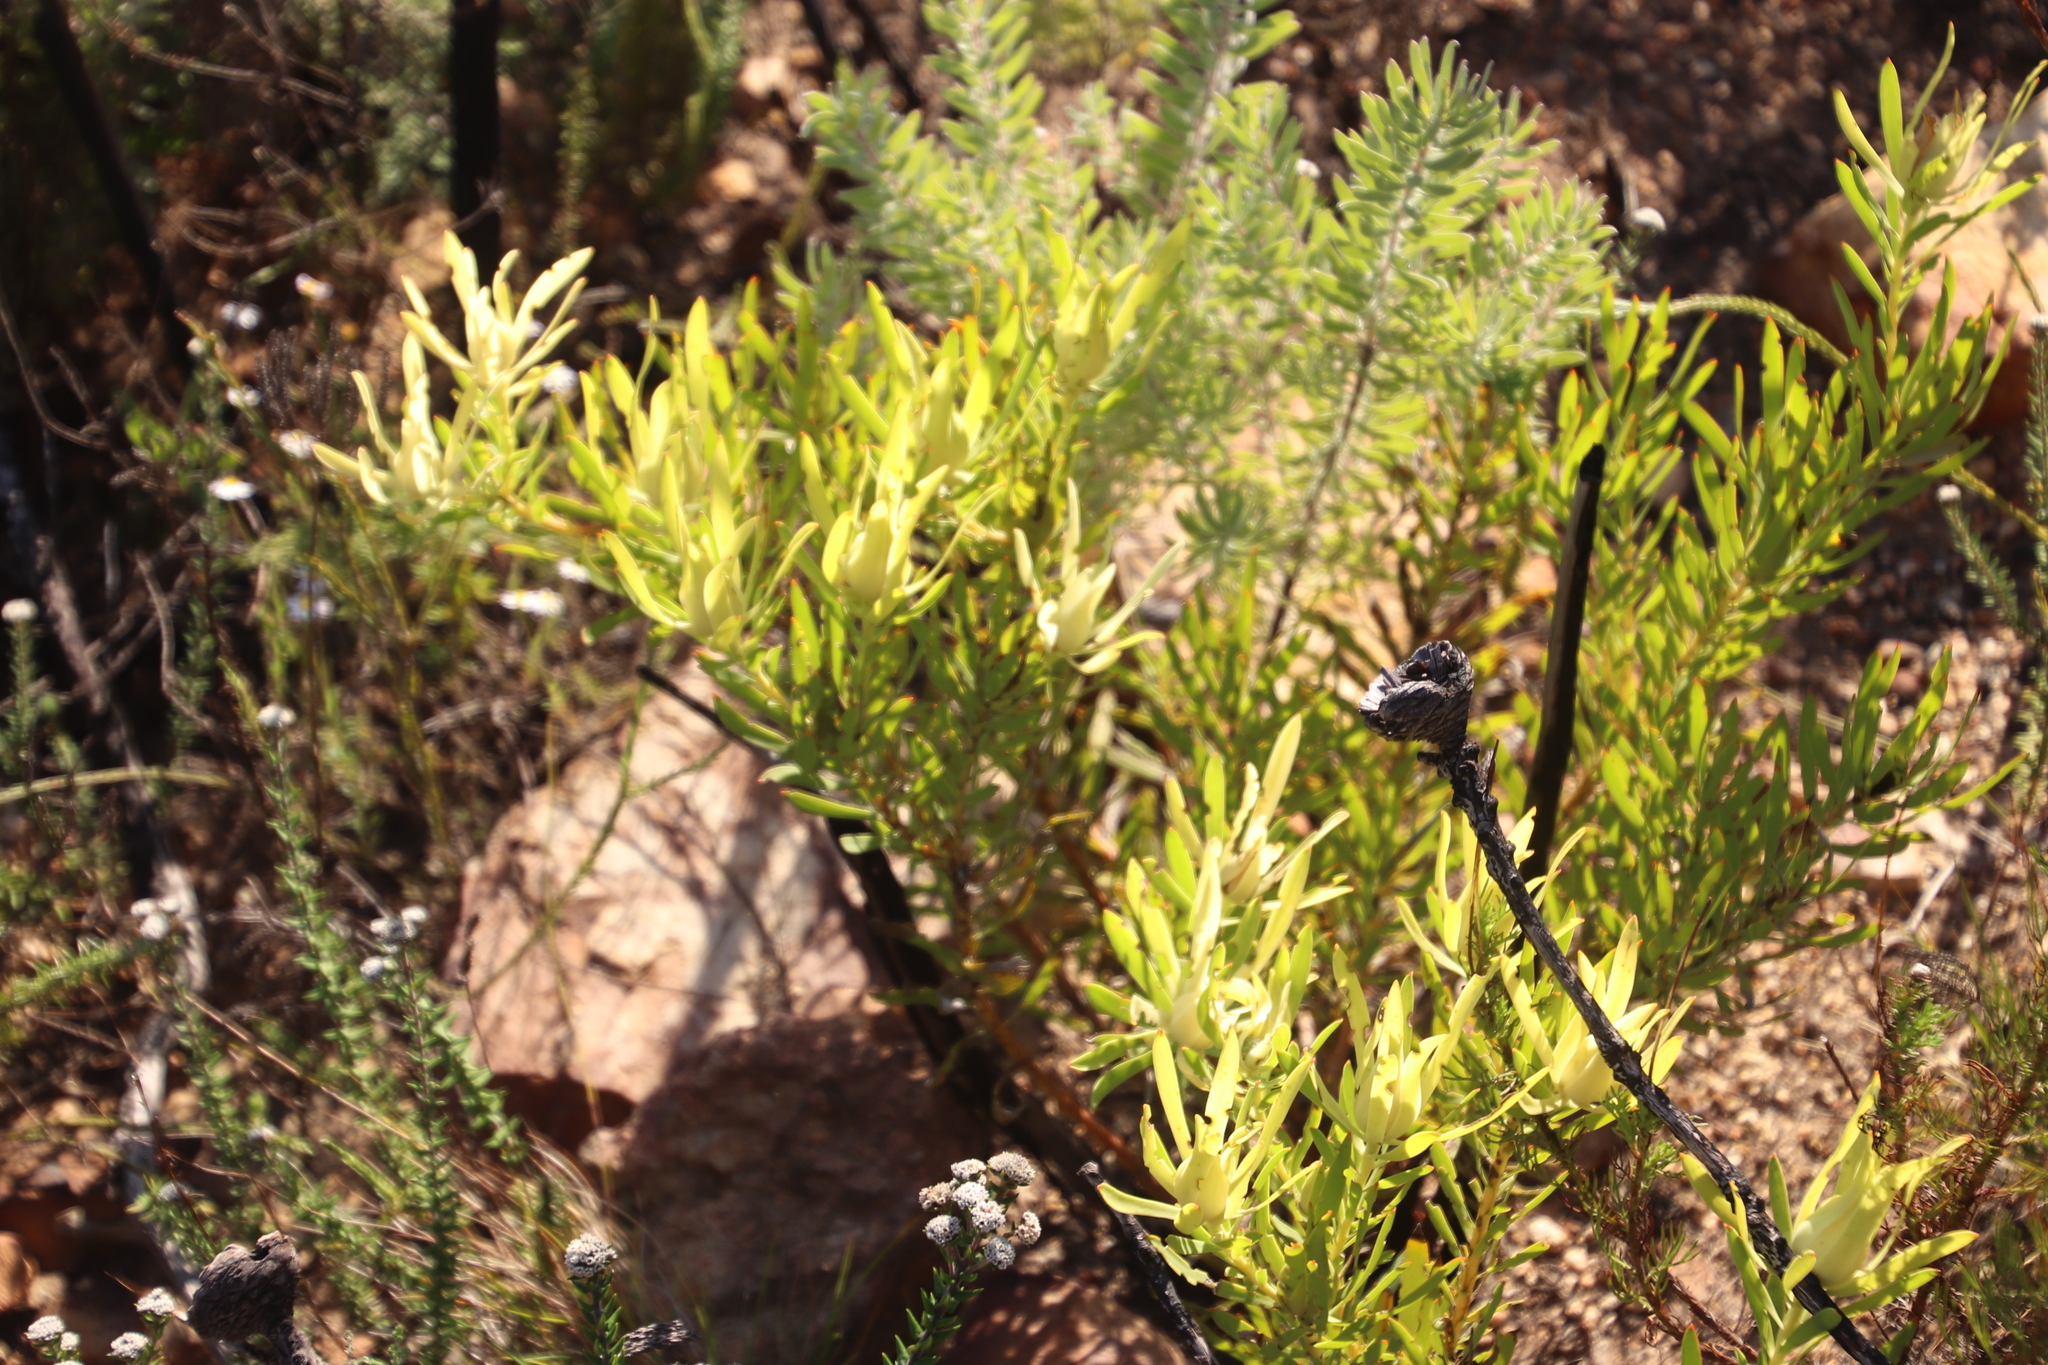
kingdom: Plantae
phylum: Tracheophyta
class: Magnoliopsida
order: Proteales
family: Proteaceae
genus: Leucadendron
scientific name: Leucadendron salignum
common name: Common sunshine conebush
